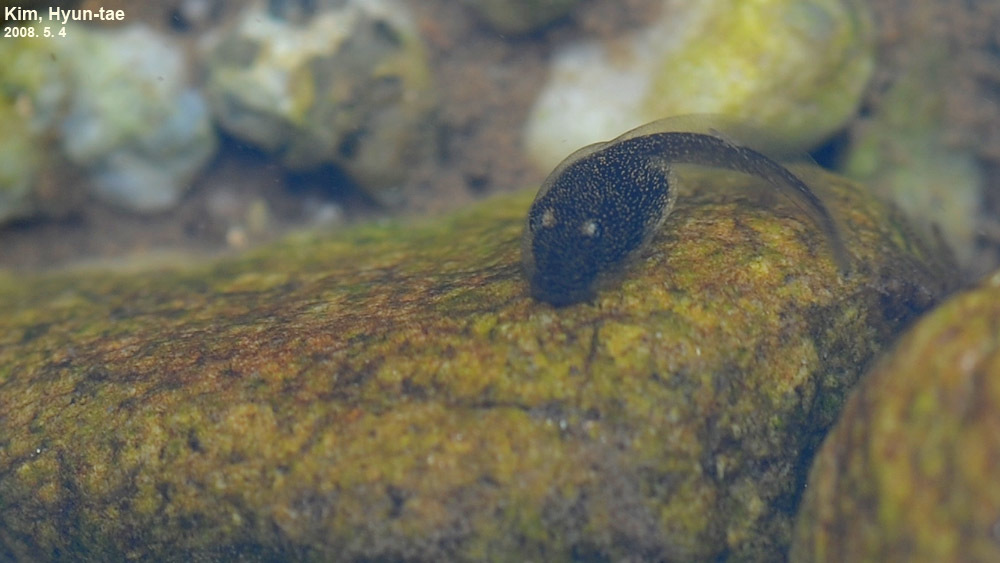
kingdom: Animalia
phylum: Chordata
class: Amphibia
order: Anura
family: Bufonidae
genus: Bufo
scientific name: Bufo stejnegeri
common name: Water toad
